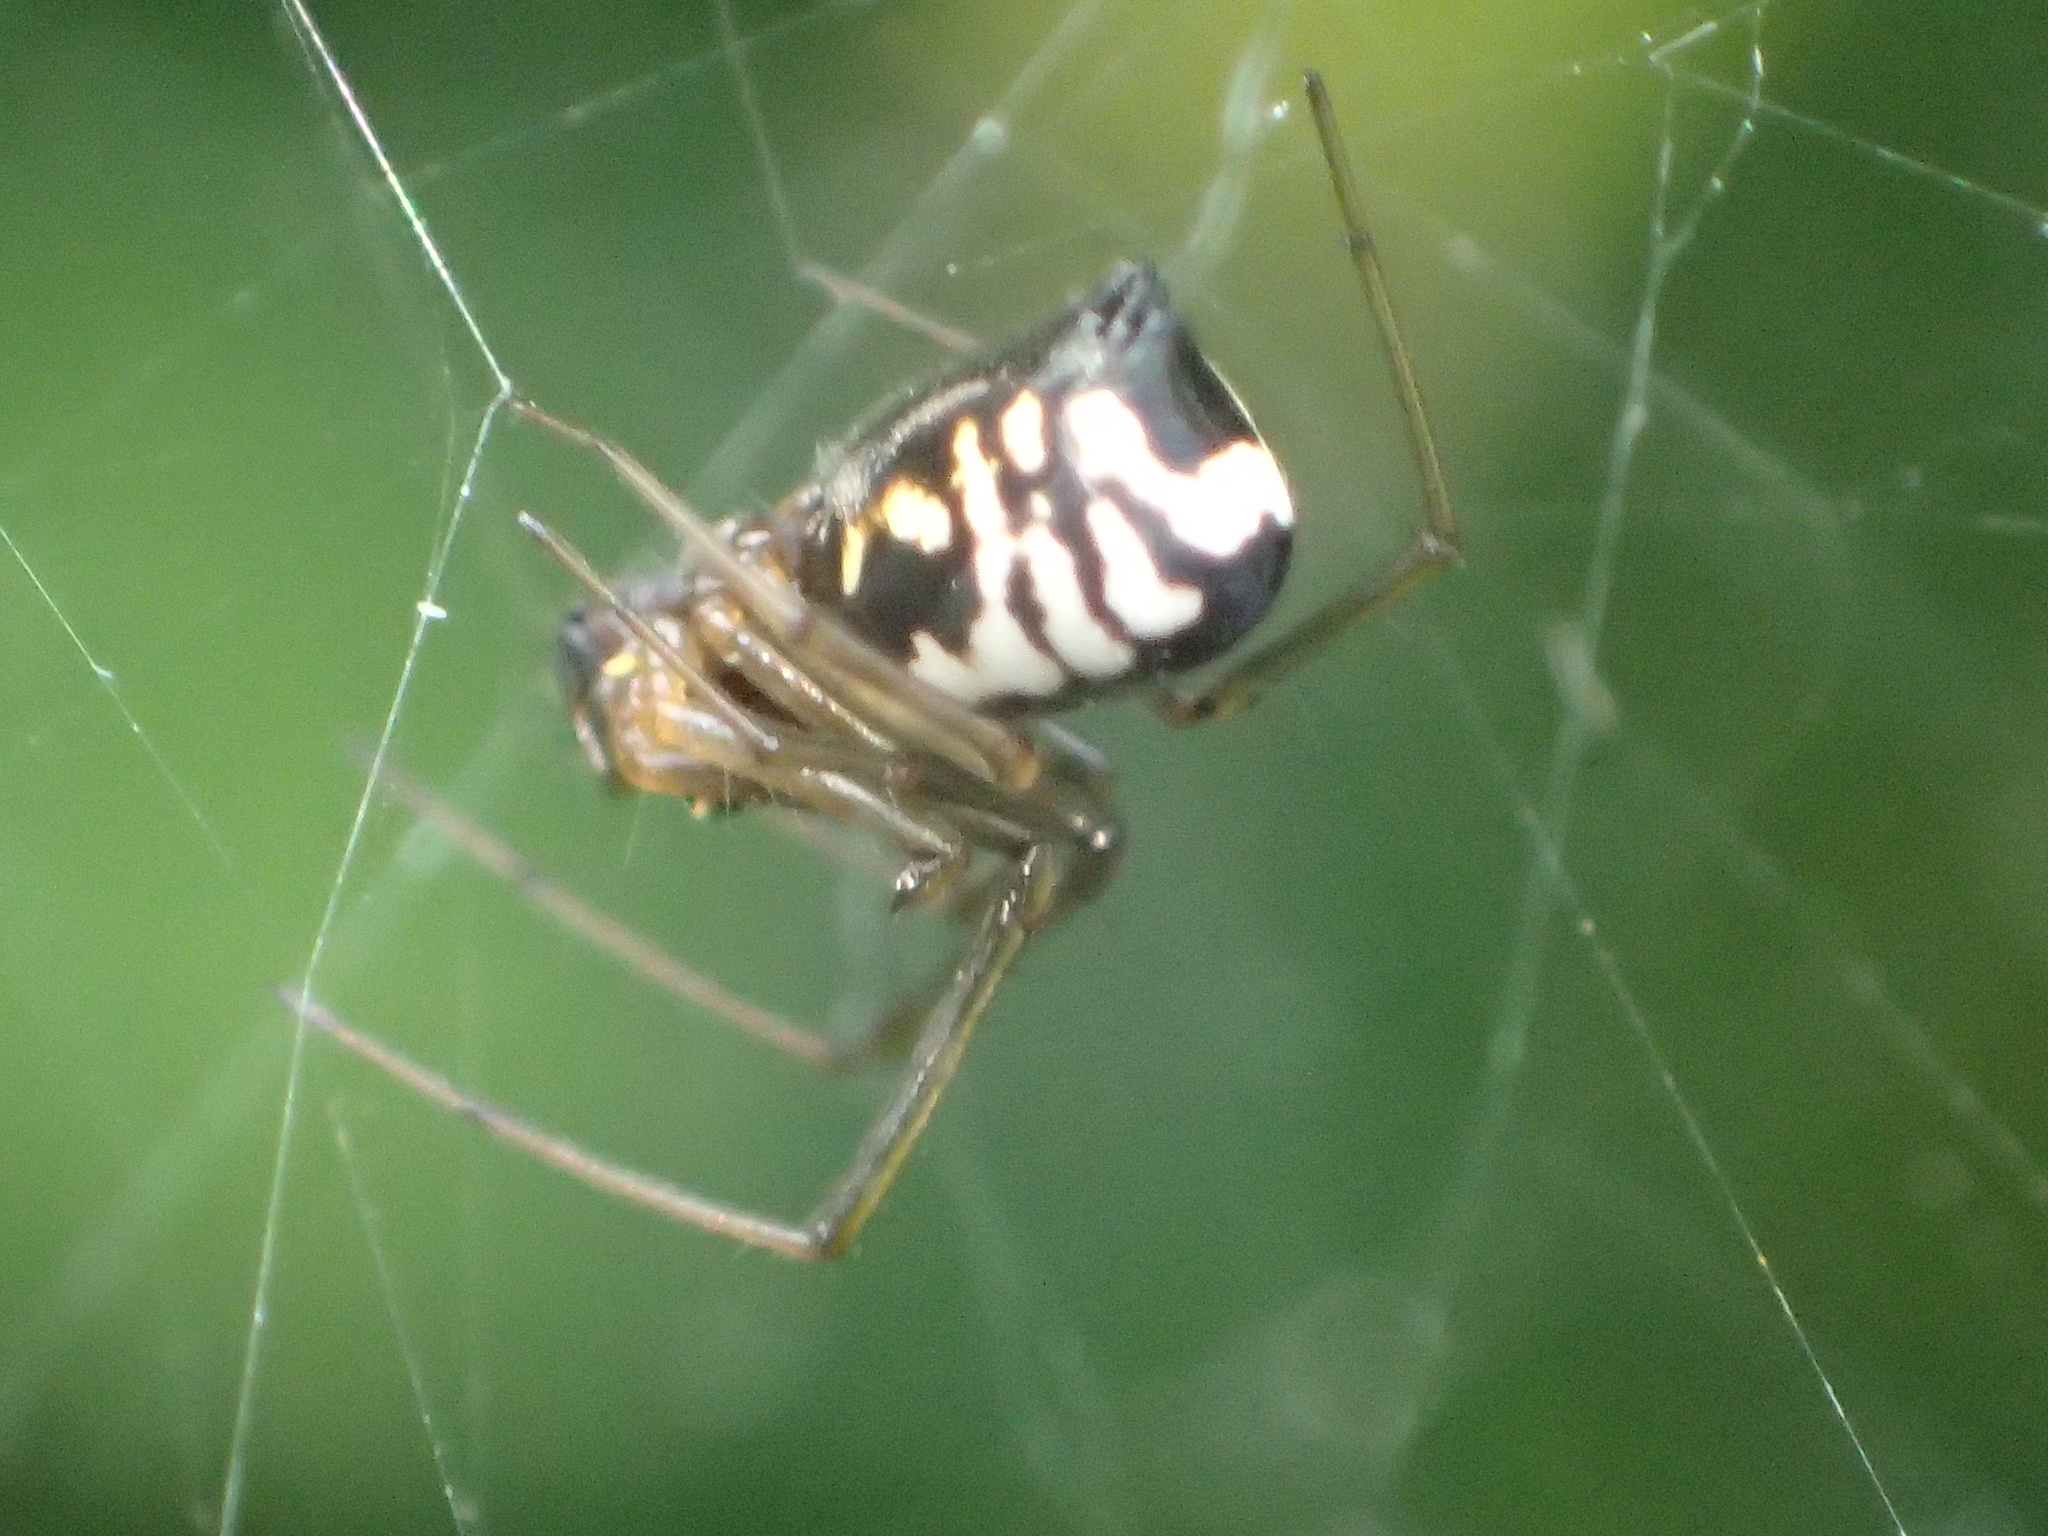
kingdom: Animalia
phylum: Arthropoda
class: Arachnida
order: Araneae
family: Linyphiidae
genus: Frontinella
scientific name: Frontinella pyramitela
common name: Bowl-and-doily spider
